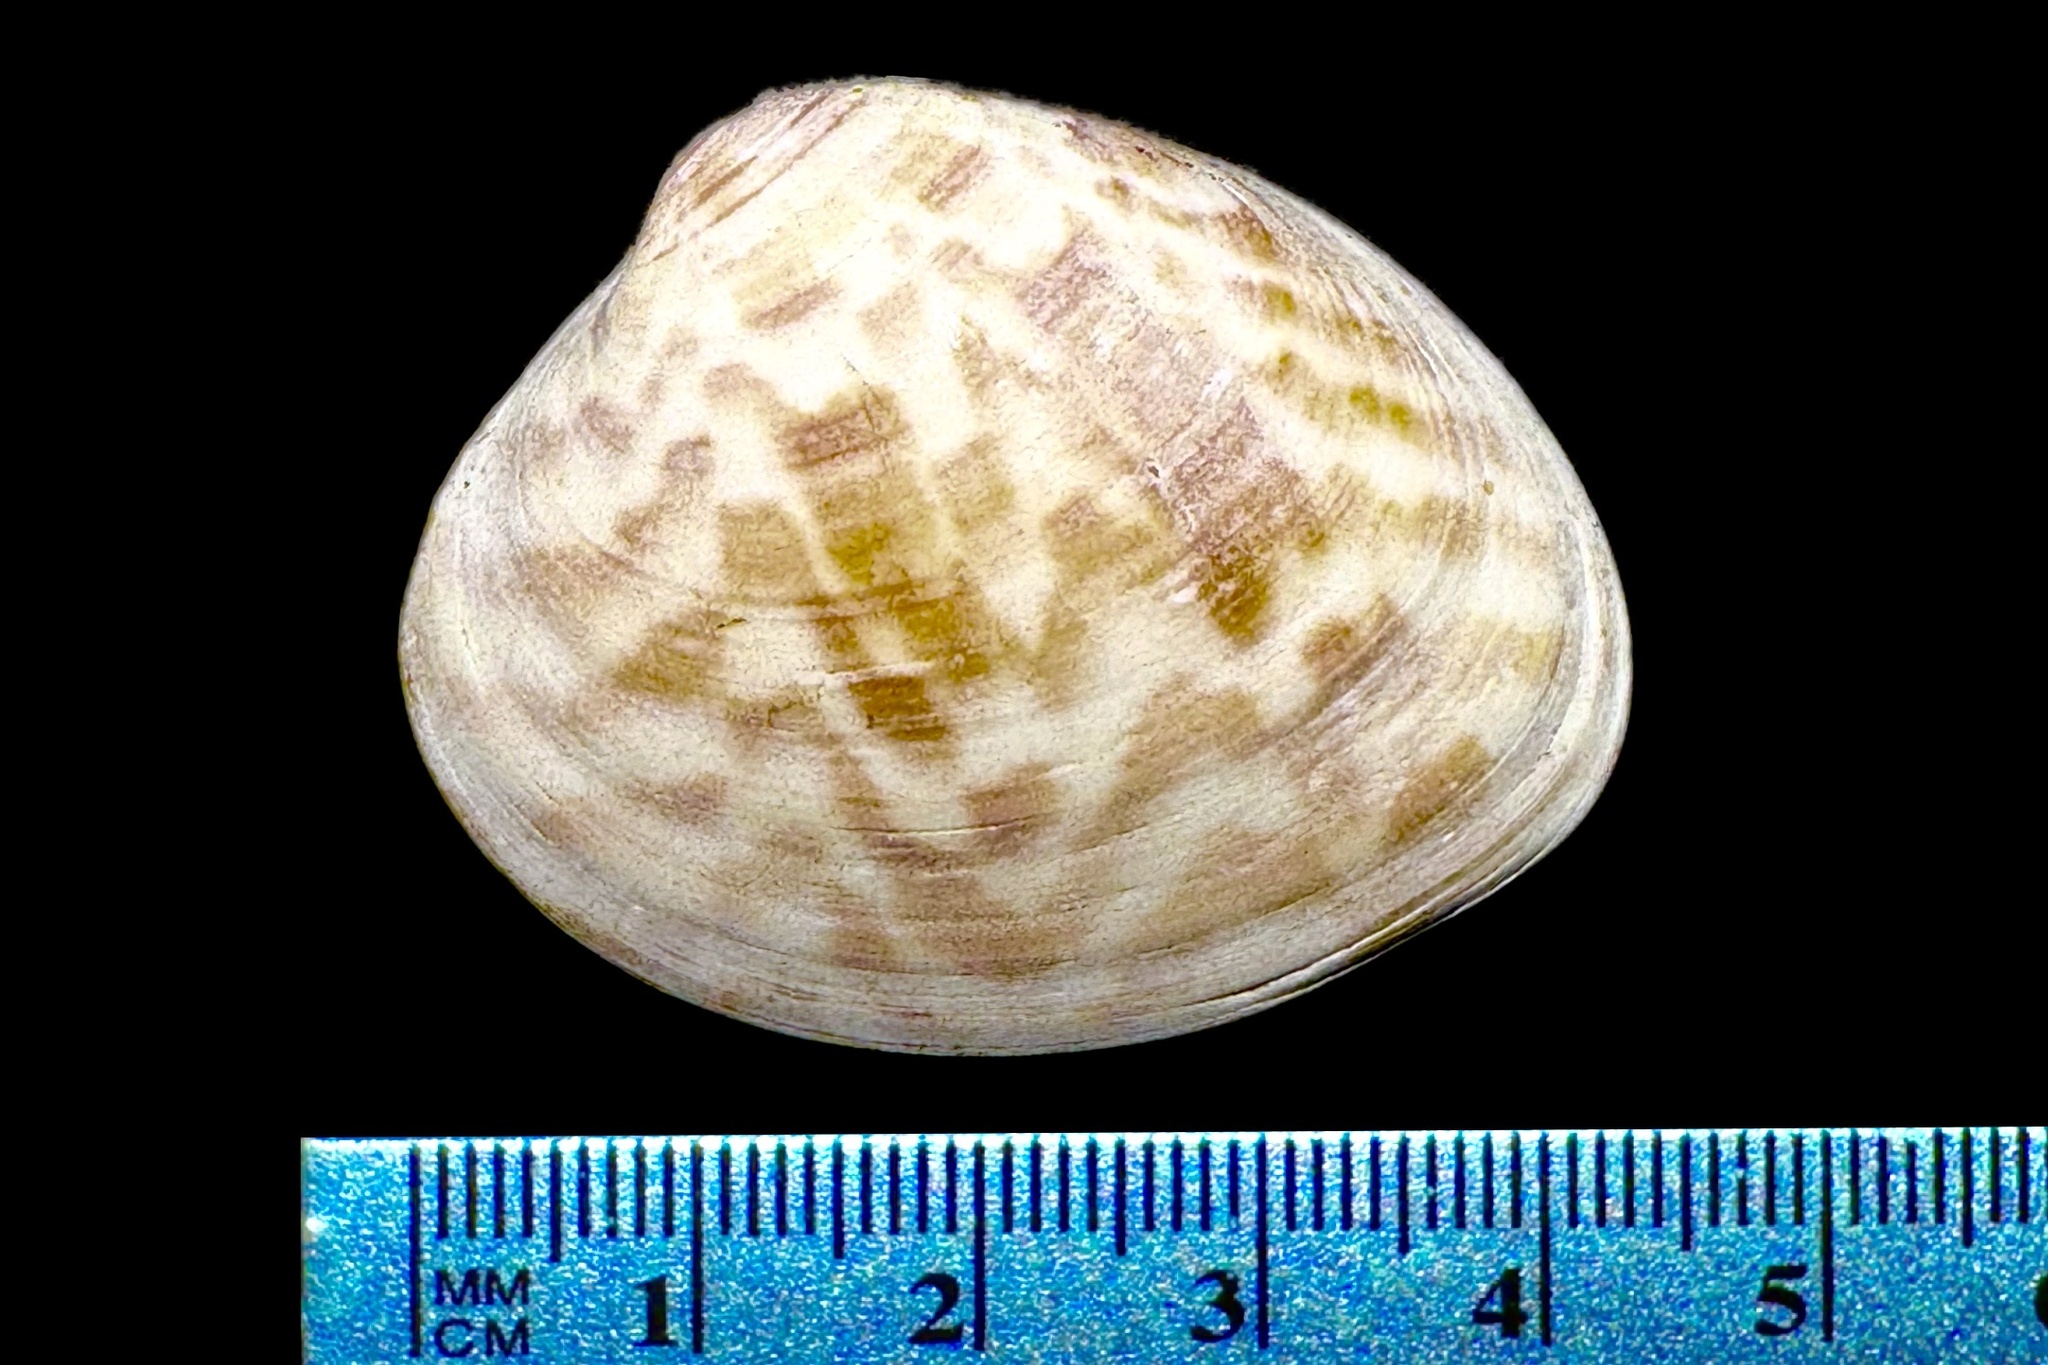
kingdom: Animalia
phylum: Mollusca
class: Bivalvia
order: Venerida
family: Veneridae
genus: Megapitaria
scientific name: Megapitaria maculata
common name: Calico clam
